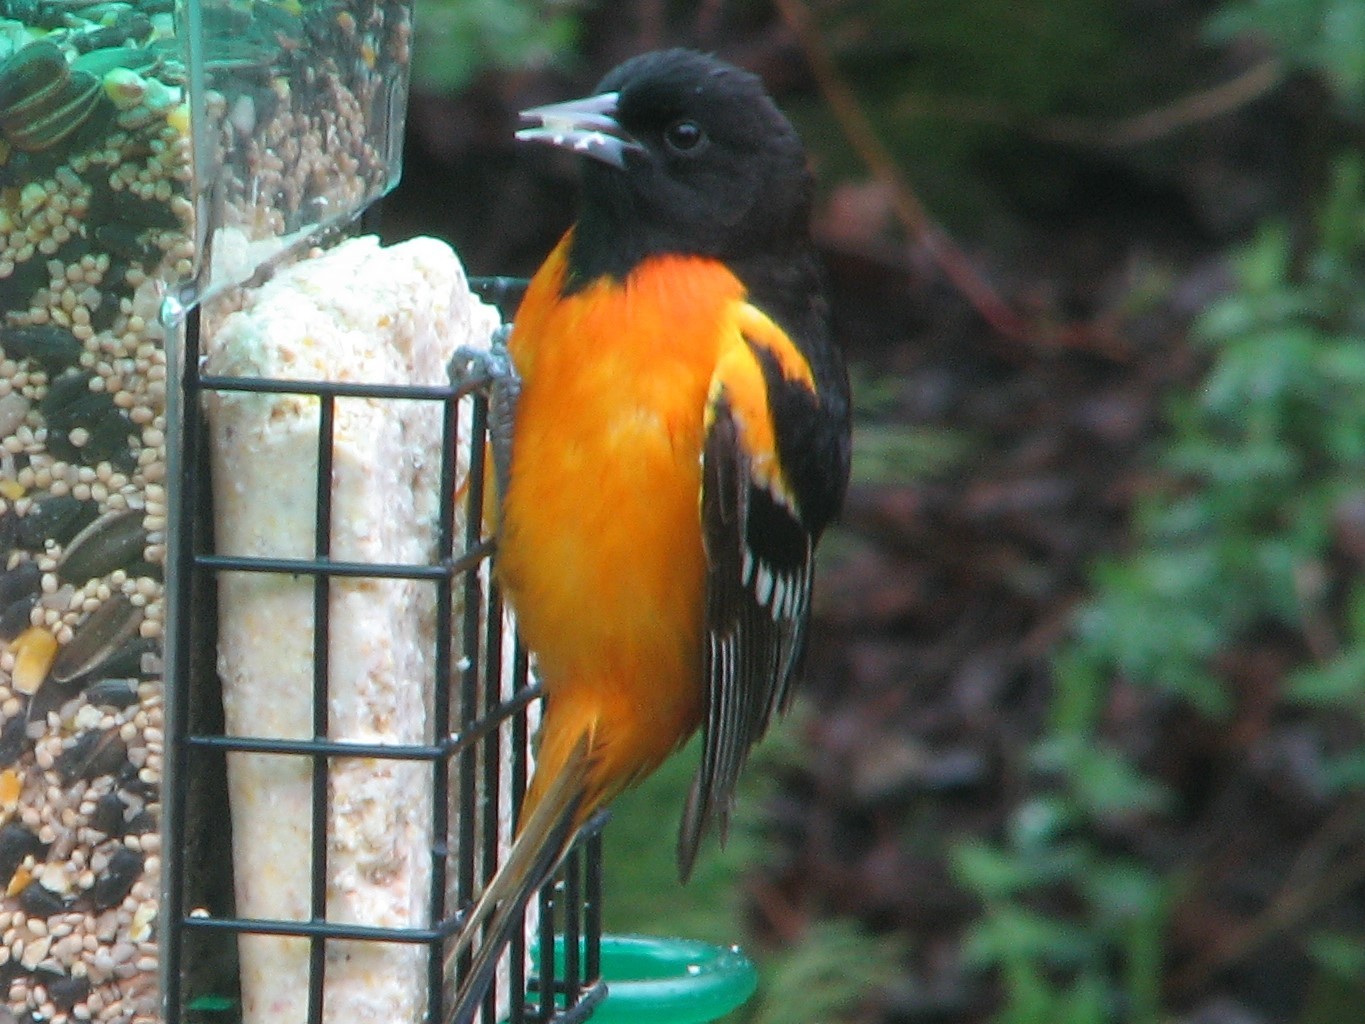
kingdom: Animalia
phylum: Chordata
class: Aves
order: Passeriformes
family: Icteridae
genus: Icterus
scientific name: Icterus galbula
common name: Baltimore oriole
